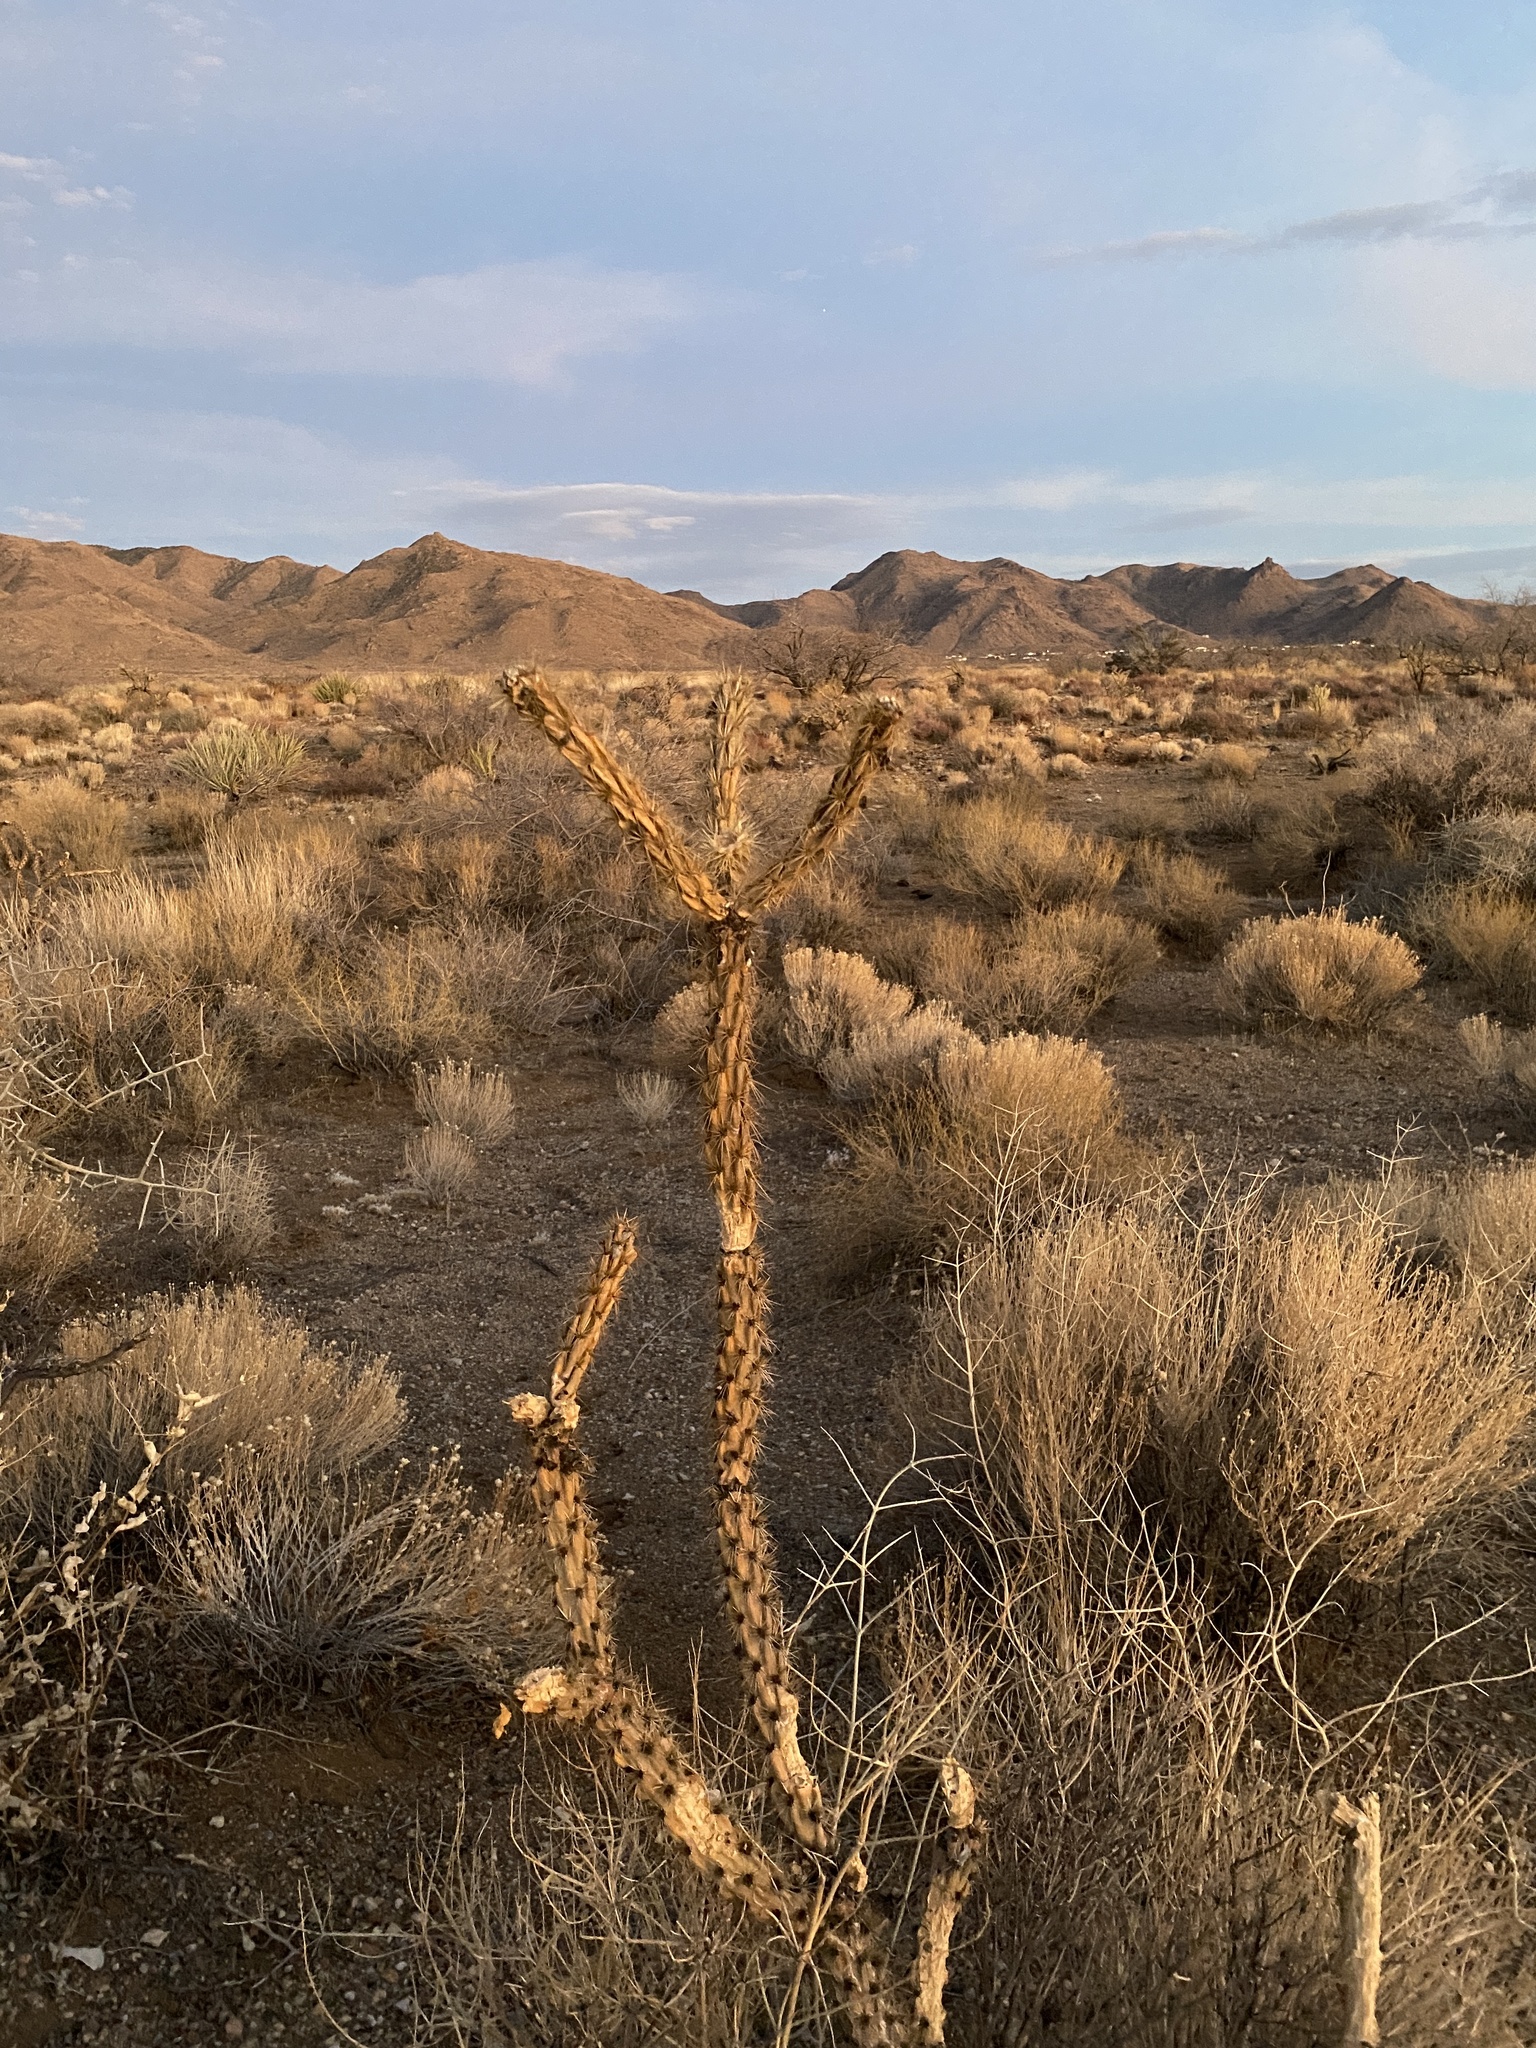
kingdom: Plantae
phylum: Tracheophyta
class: Magnoliopsida
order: Caryophyllales
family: Cactaceae
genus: Cylindropuntia
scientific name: Cylindropuntia acanthocarpa
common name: Buckhorn cholla
